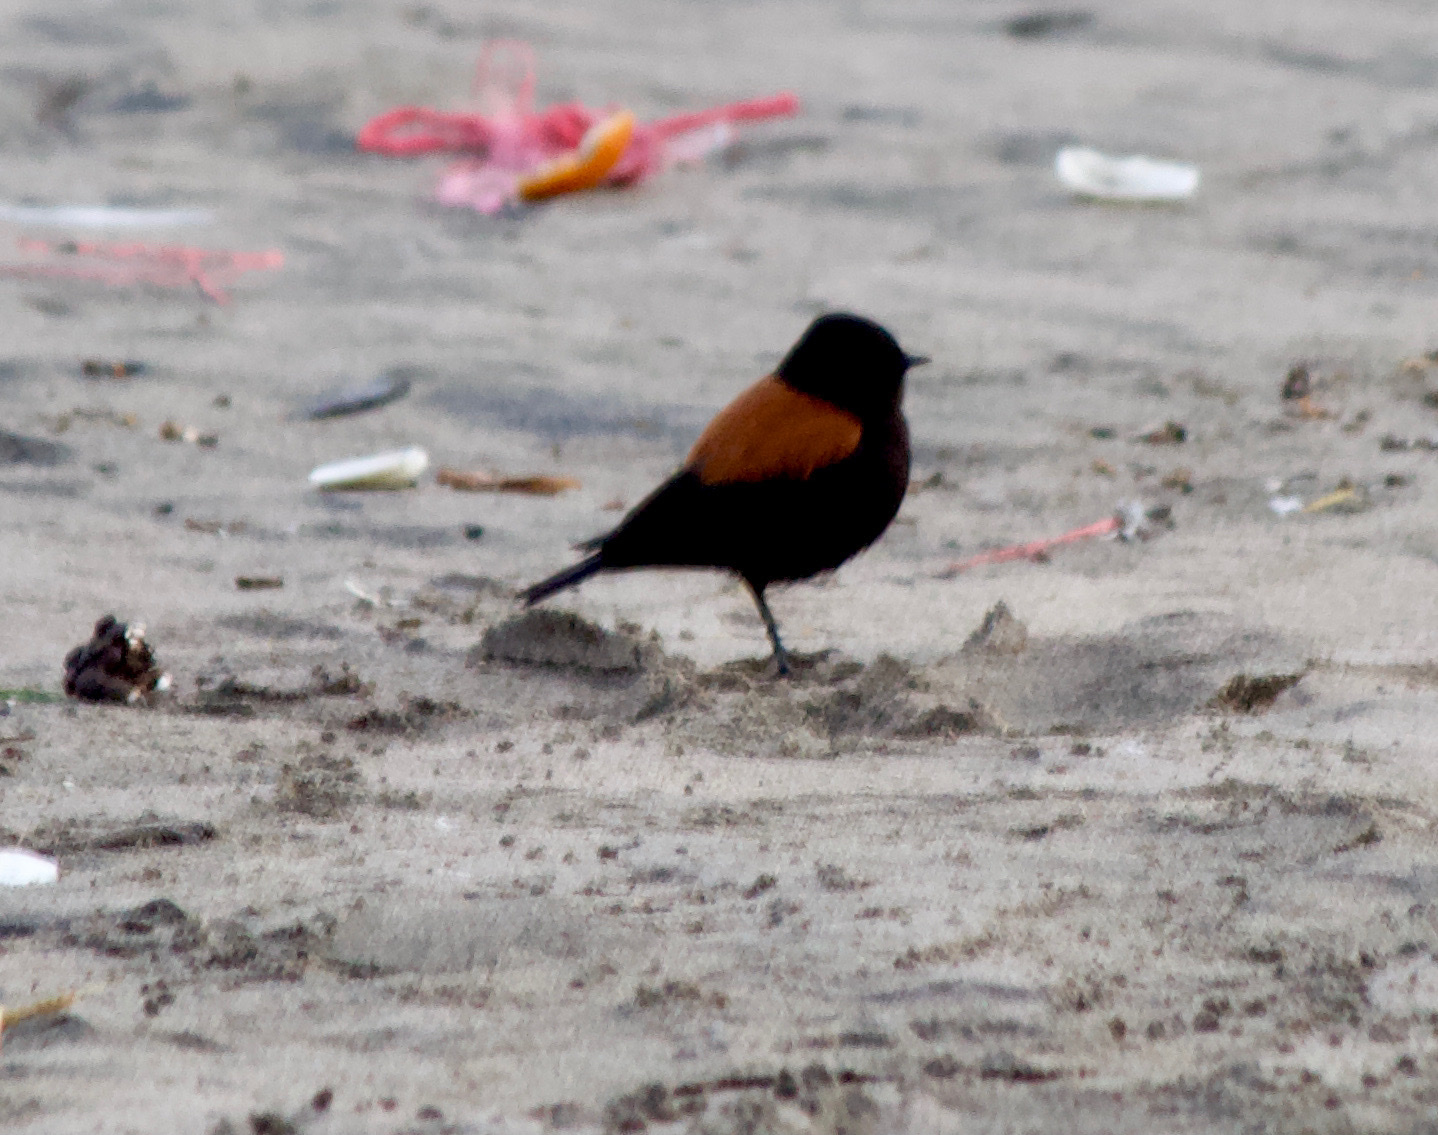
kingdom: Animalia
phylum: Chordata
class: Aves
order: Passeriformes
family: Tyrannidae
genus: Lessonia
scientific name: Lessonia rufa
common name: Austral negrito
